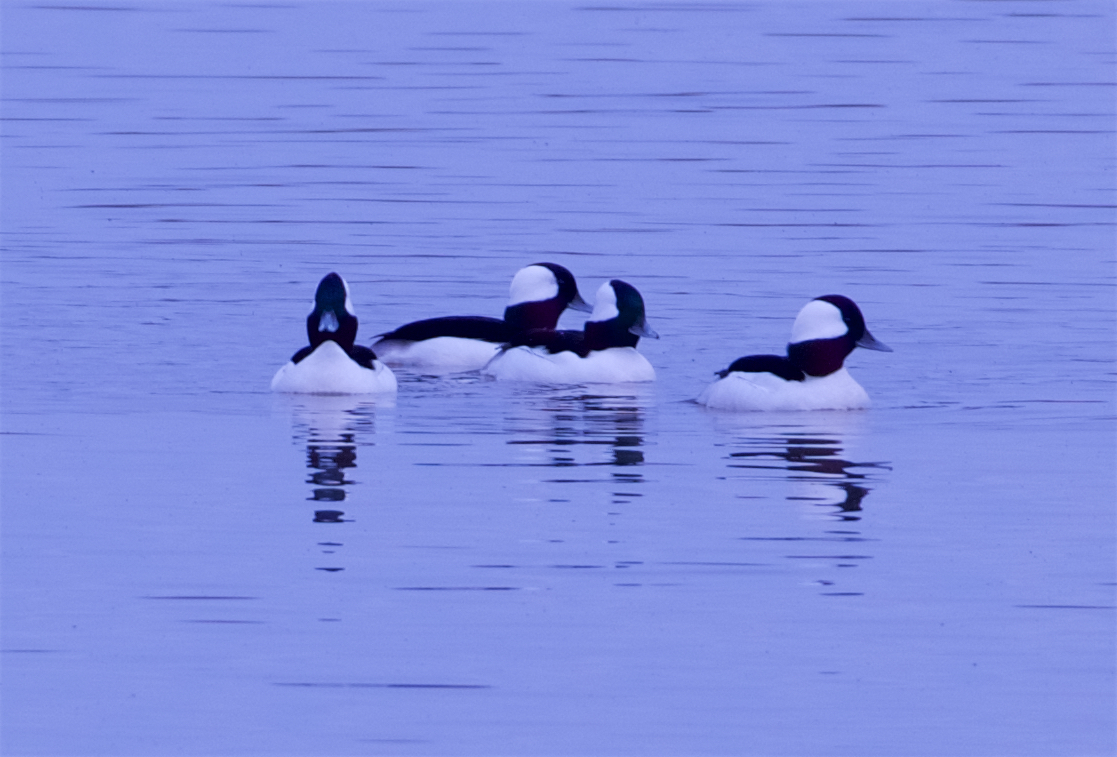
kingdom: Animalia
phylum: Chordata
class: Aves
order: Anseriformes
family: Anatidae
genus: Bucephala
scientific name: Bucephala albeola
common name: Bufflehead
